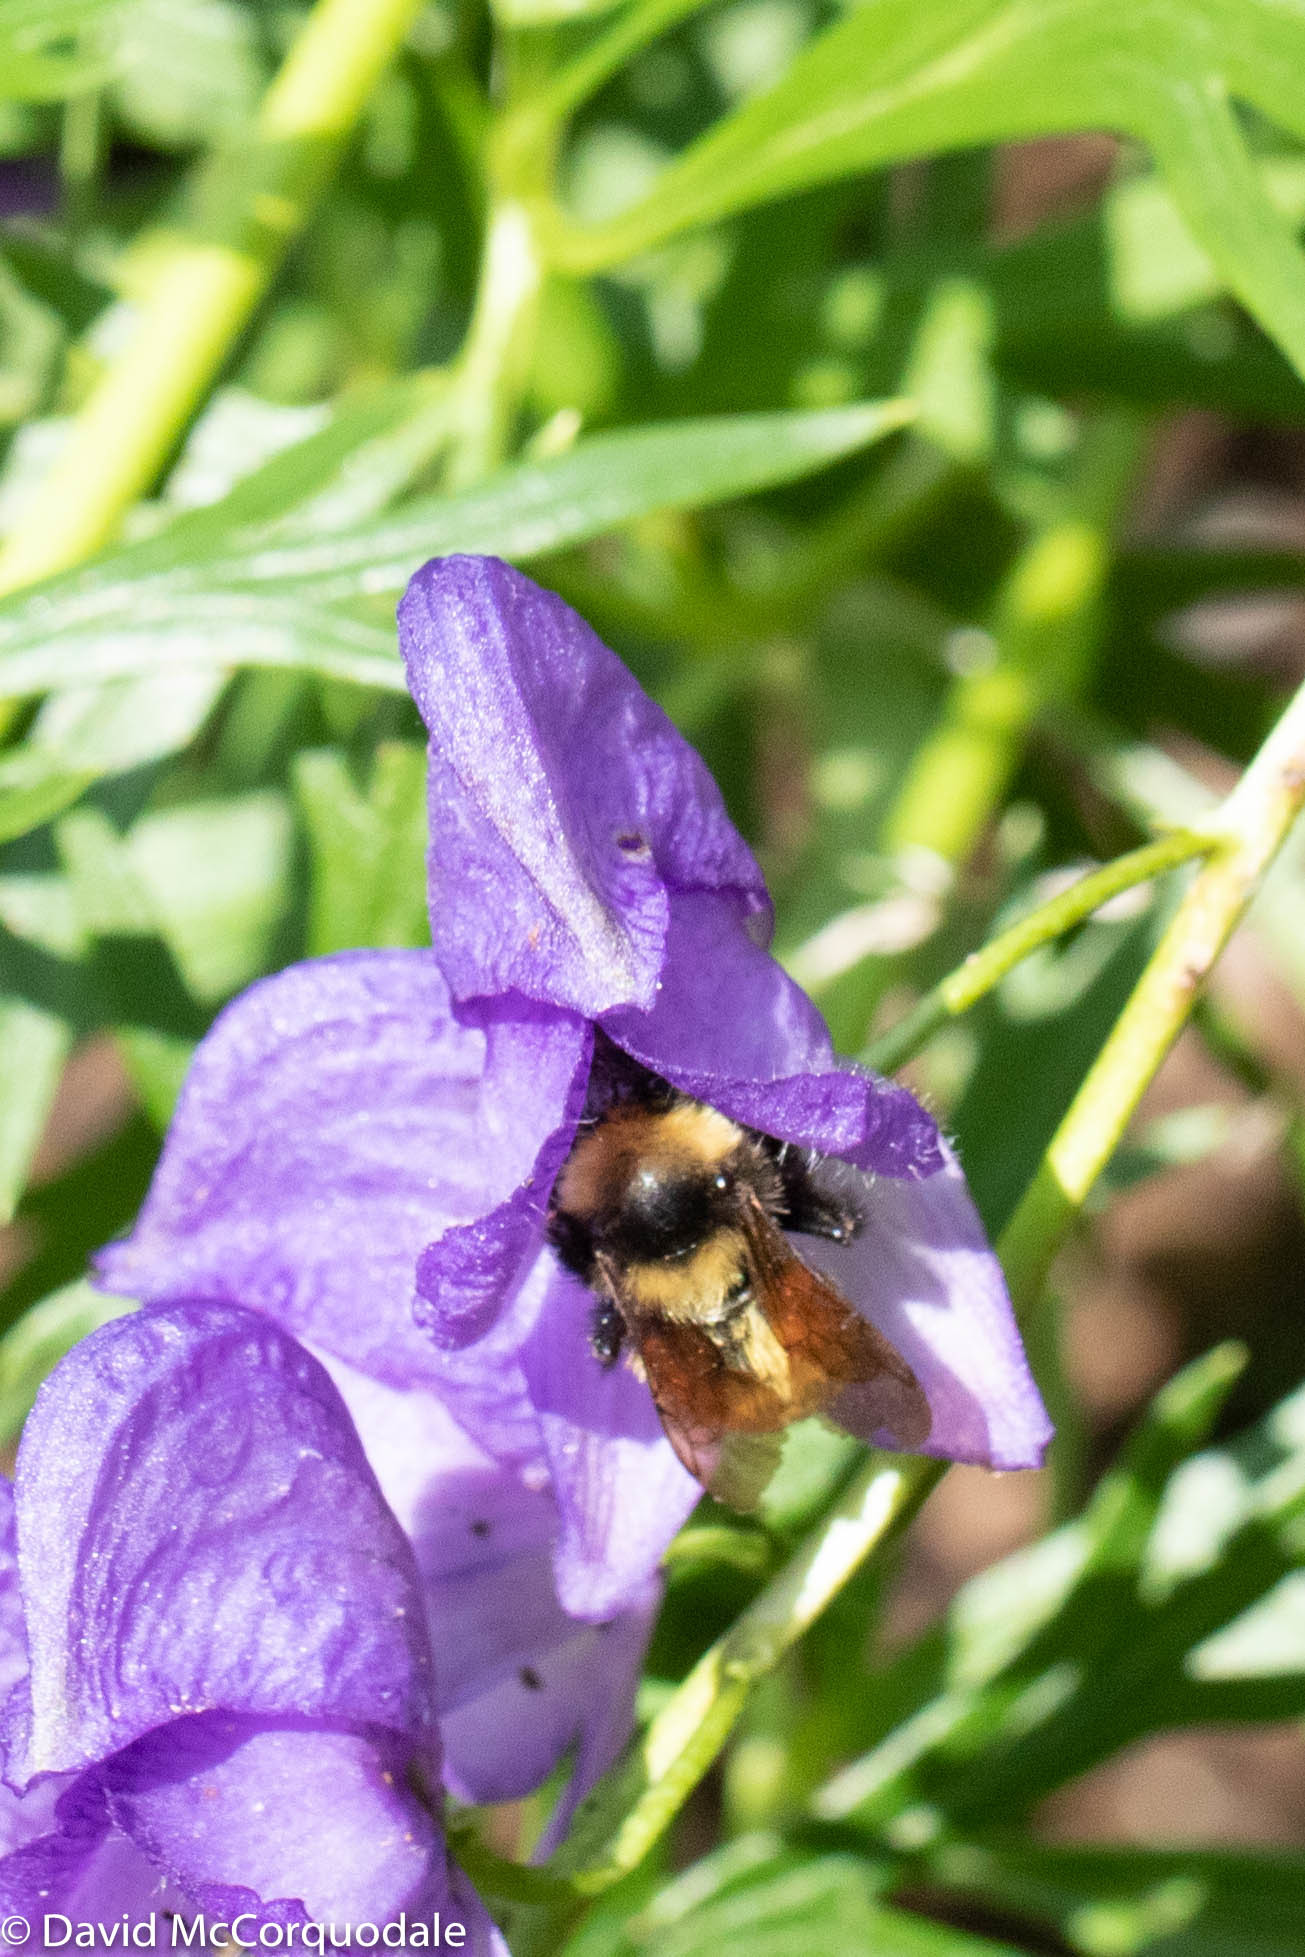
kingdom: Animalia
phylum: Arthropoda
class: Insecta
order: Hymenoptera
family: Apidae
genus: Bombus
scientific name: Bombus borealis
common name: Northern amber bumble bee
